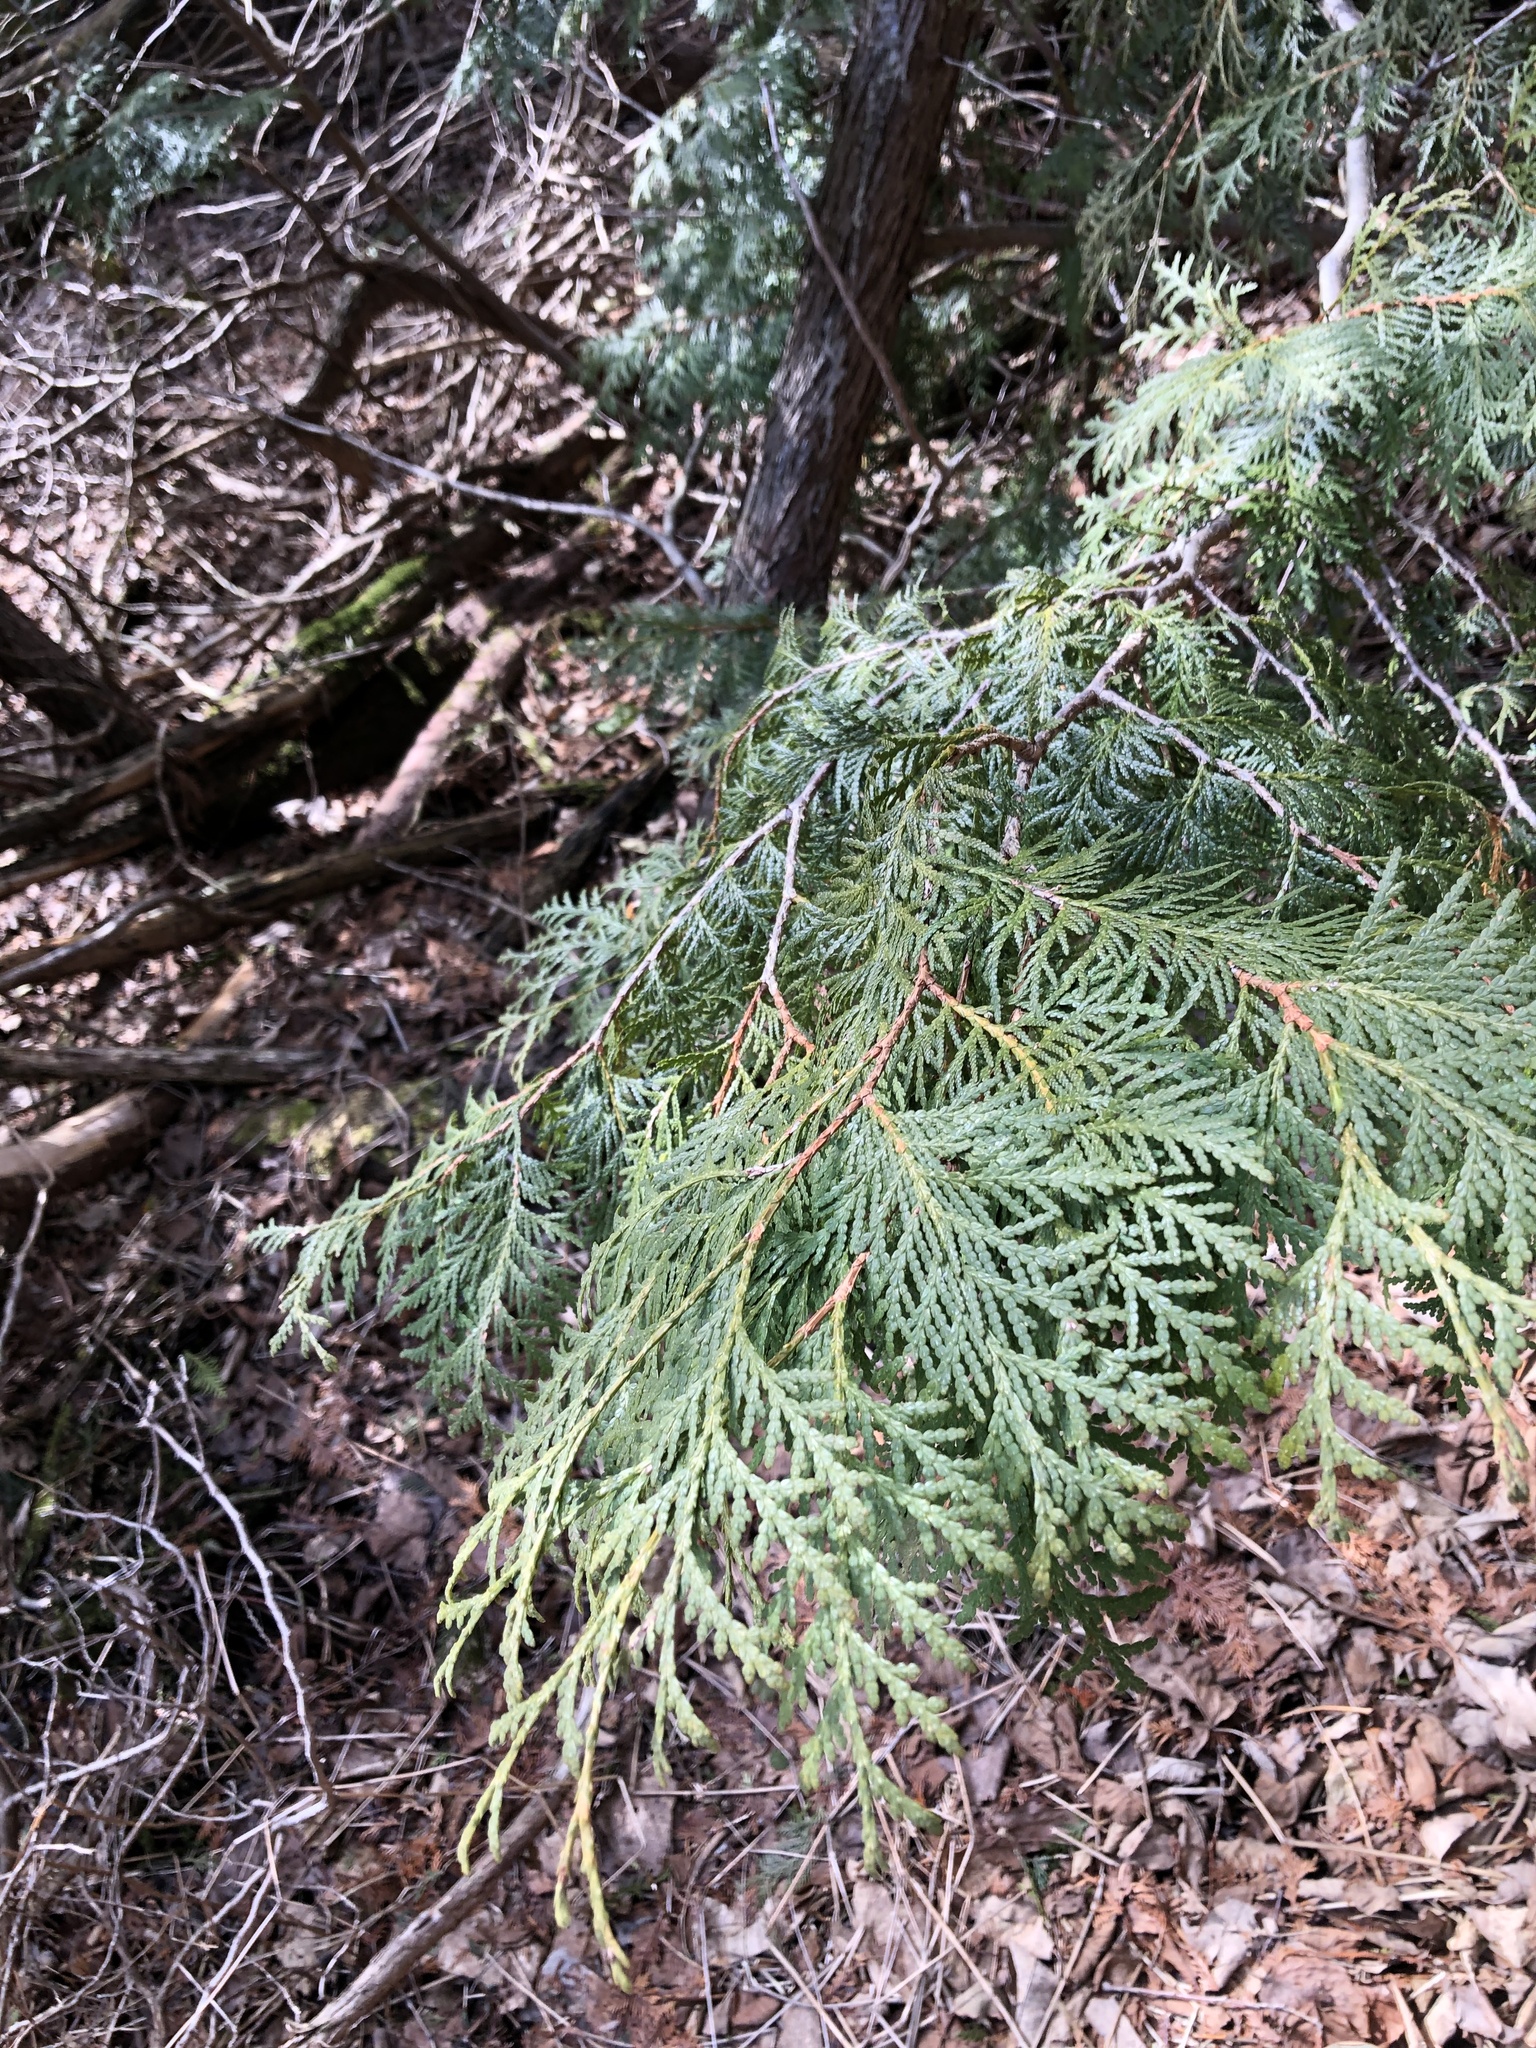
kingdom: Plantae
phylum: Tracheophyta
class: Pinopsida
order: Pinales
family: Cupressaceae
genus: Thuja
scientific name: Thuja occidentalis
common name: Northern white-cedar
